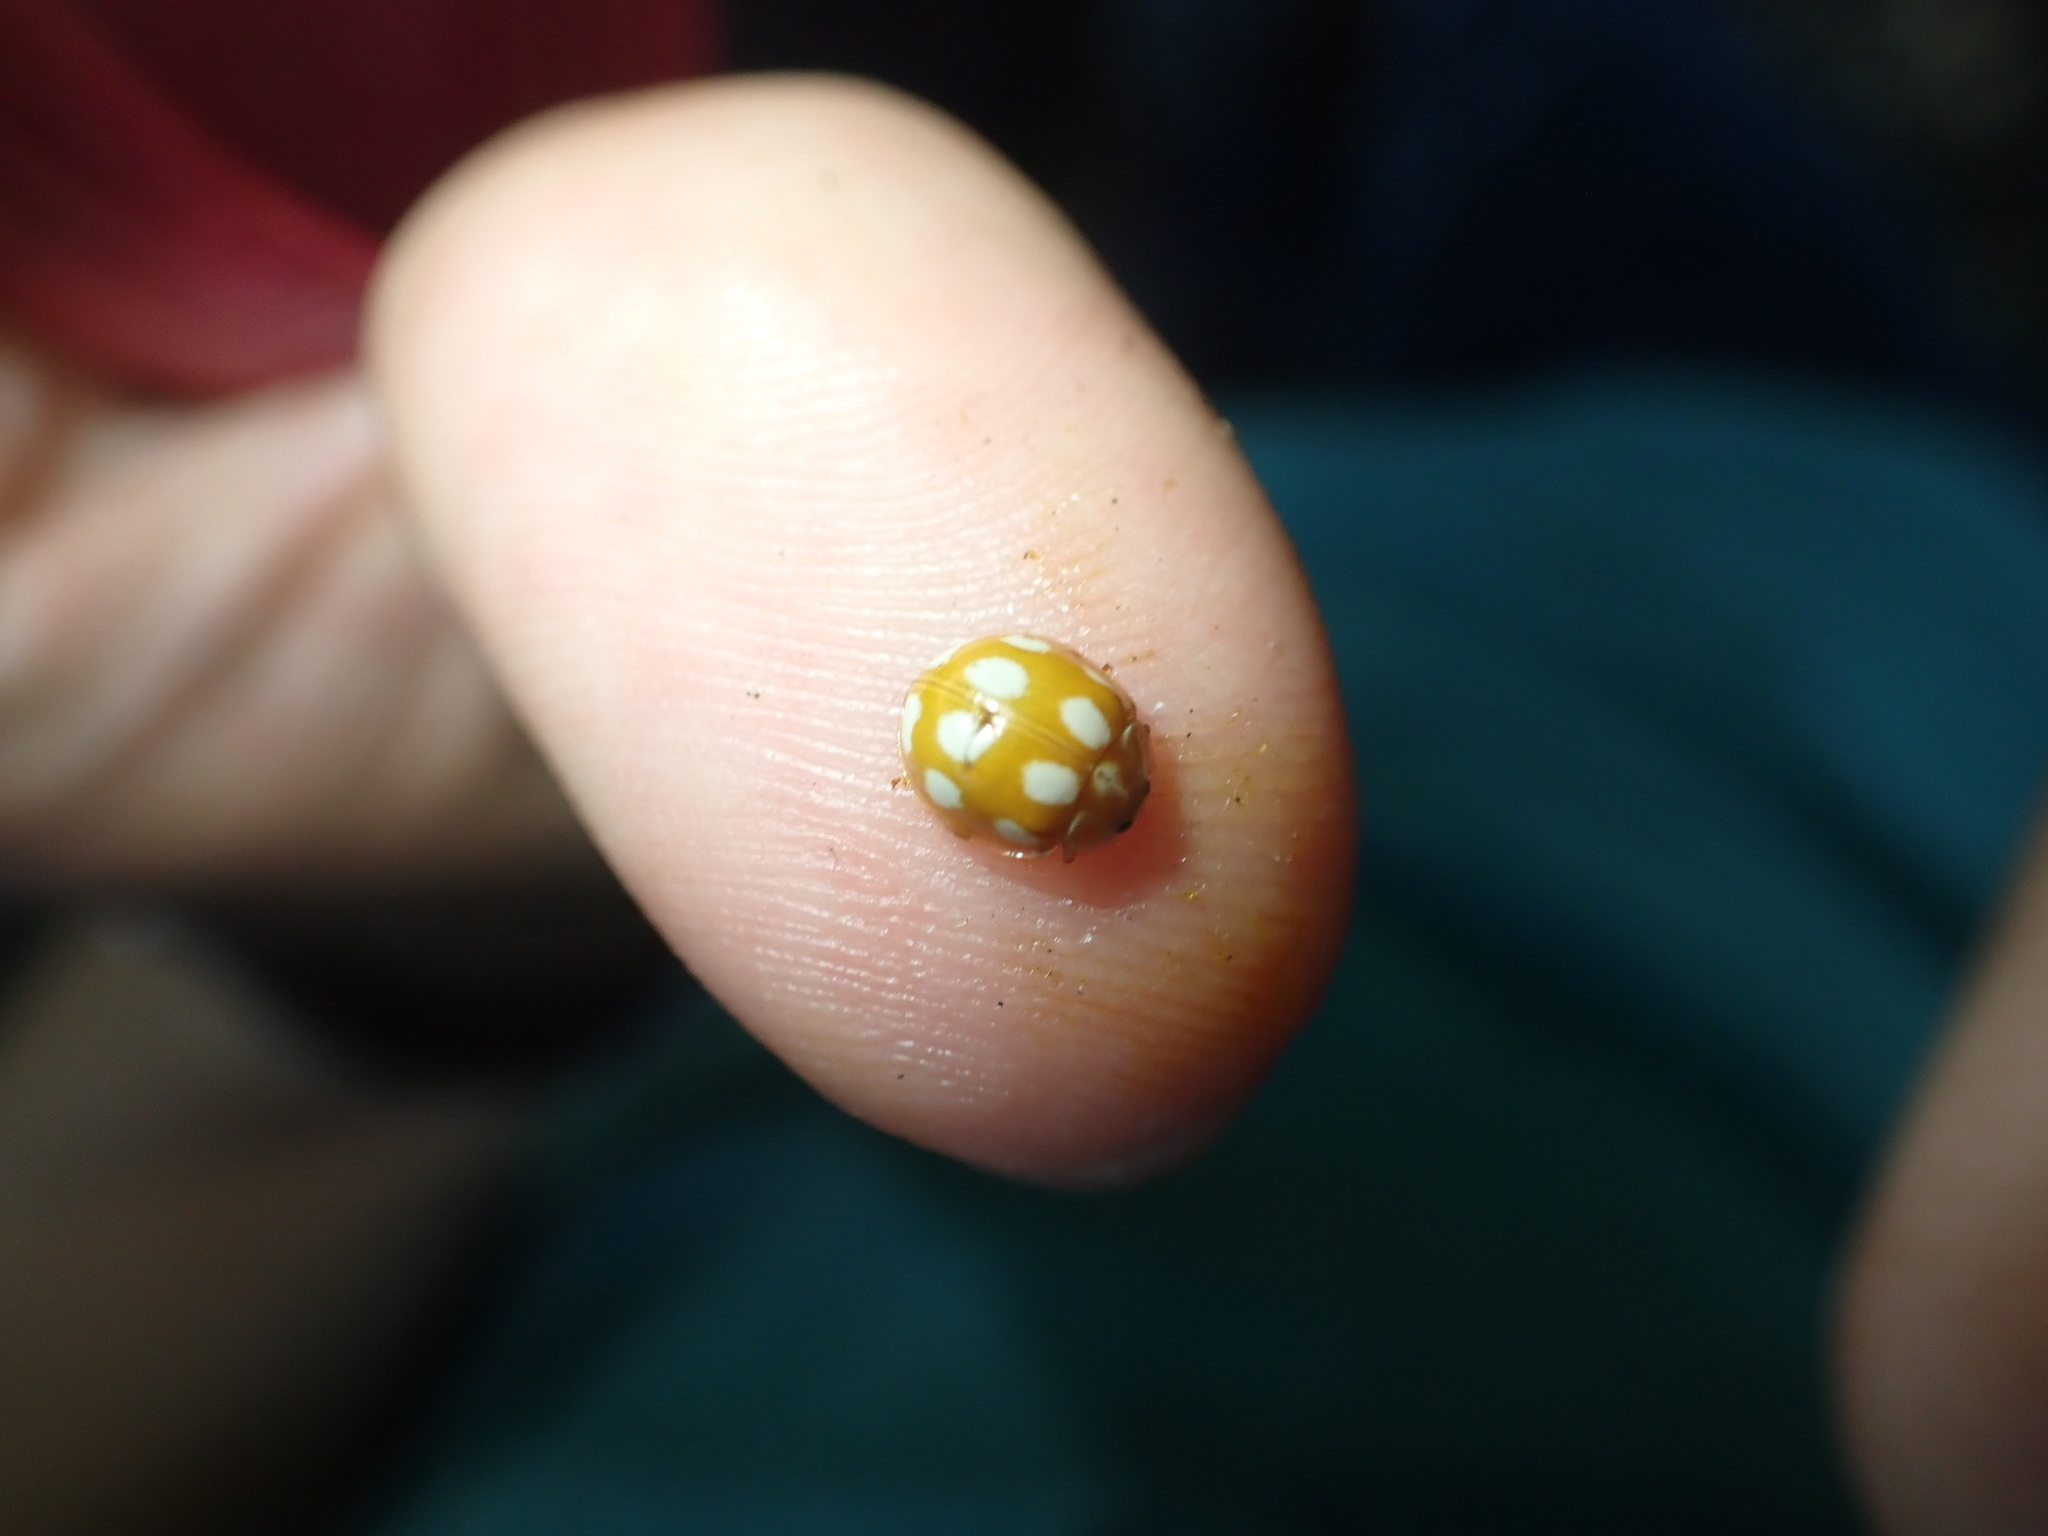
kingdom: Animalia
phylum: Arthropoda
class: Insecta
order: Coleoptera
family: Coccinellidae
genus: Calvia
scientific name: Calvia decemguttata
